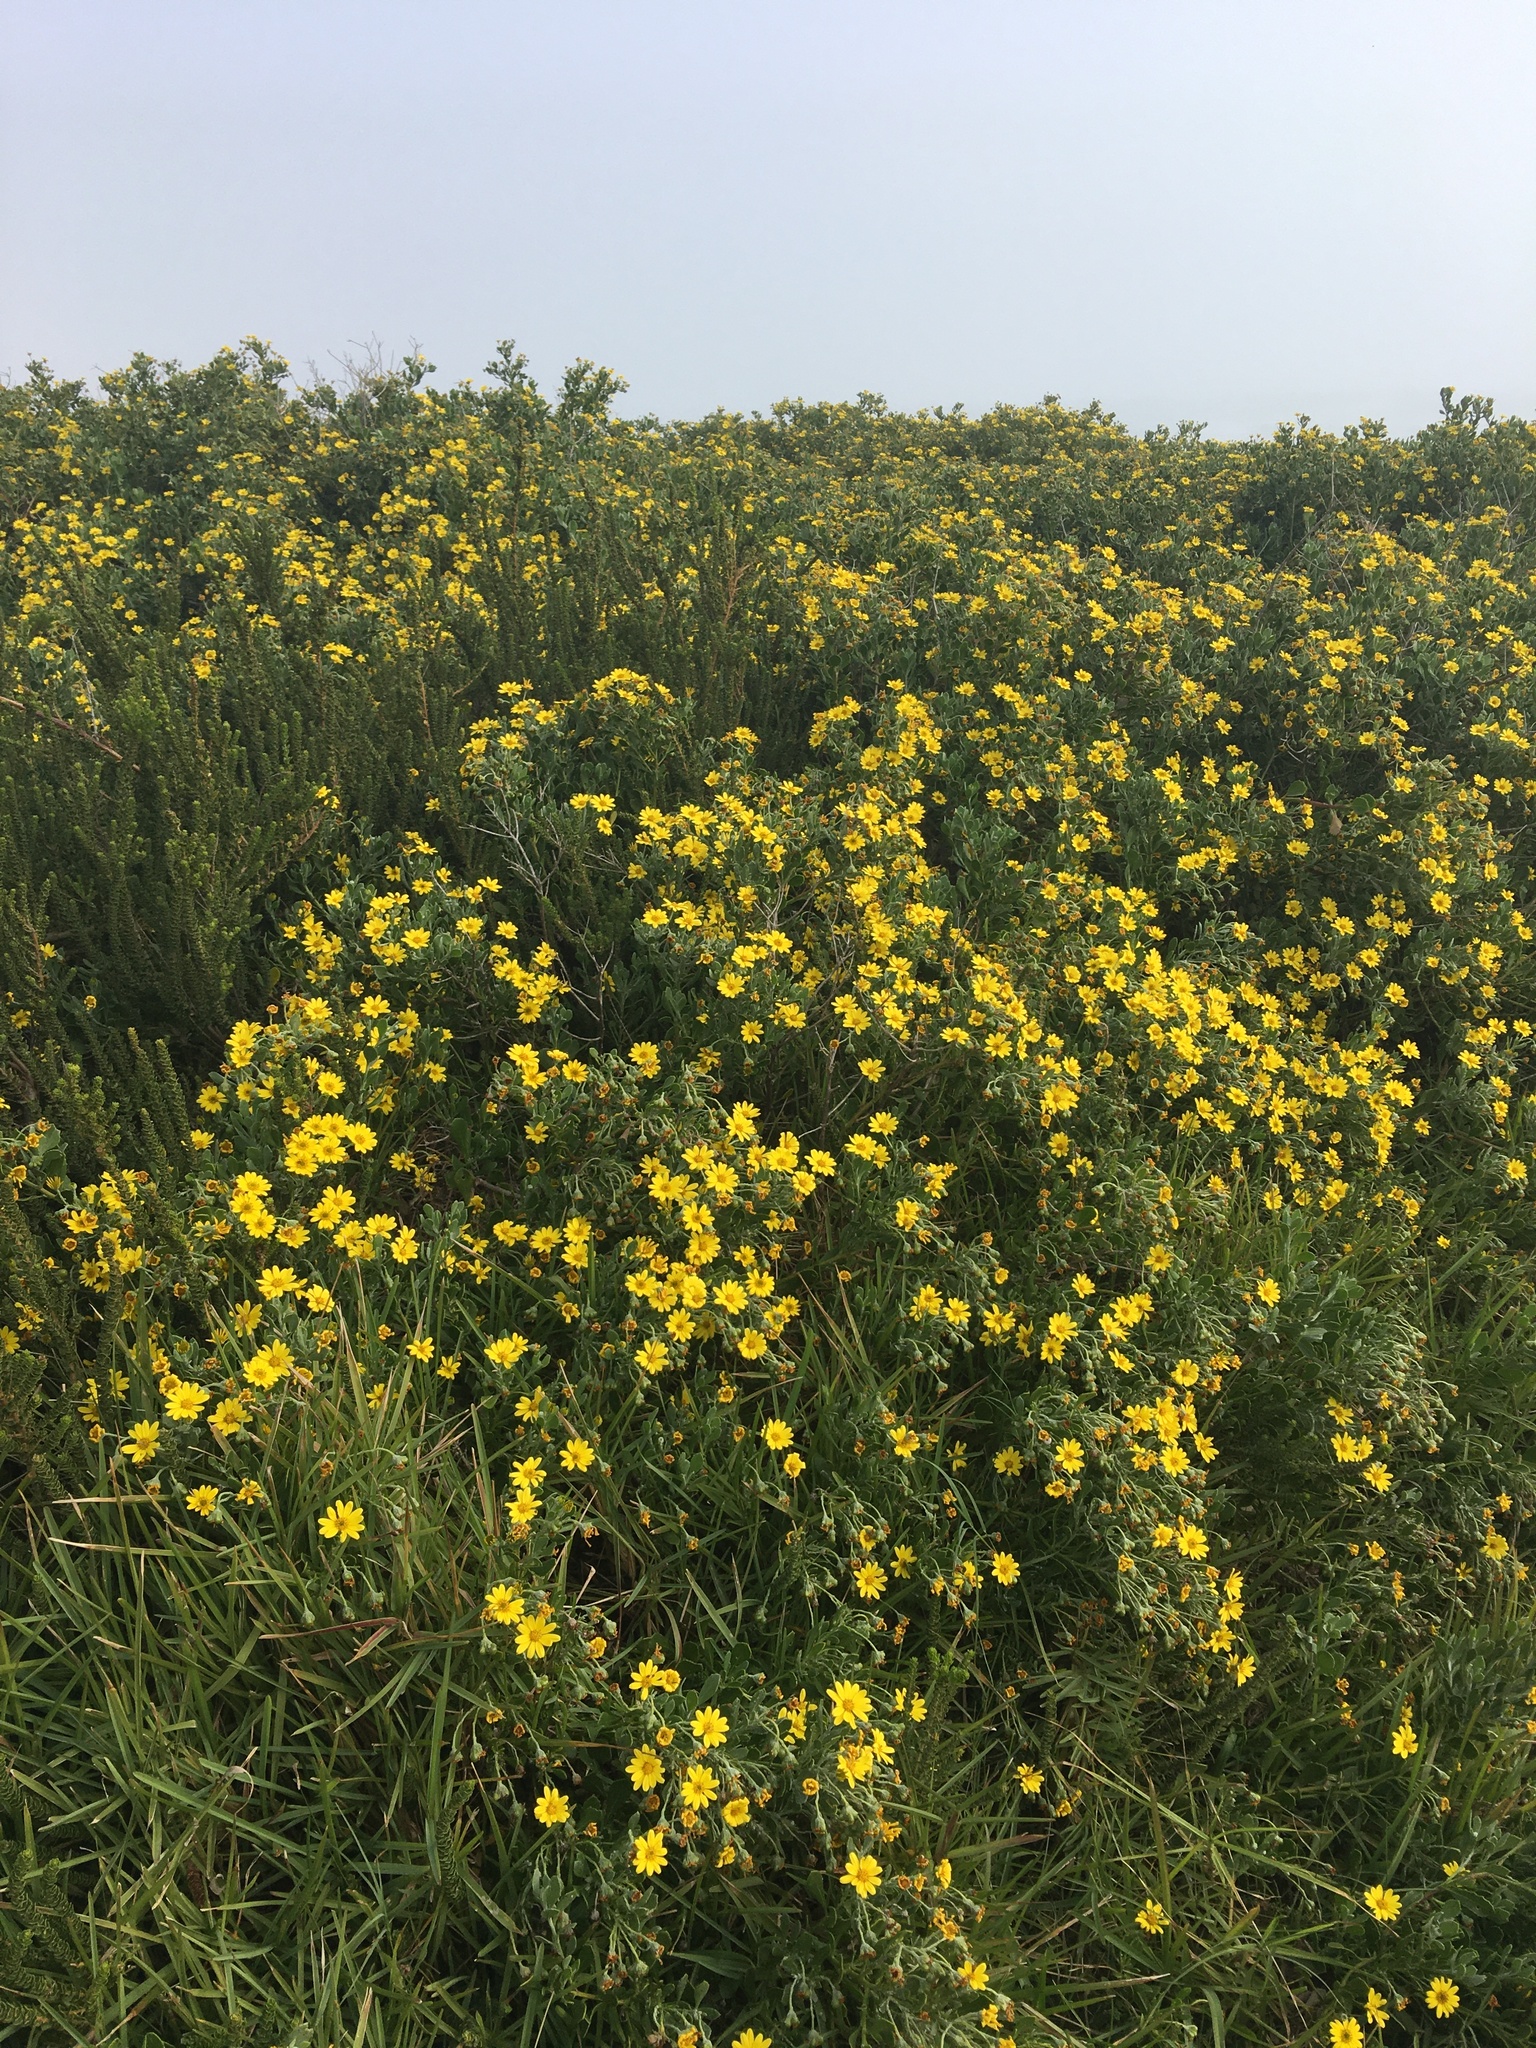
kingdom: Plantae
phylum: Tracheophyta
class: Magnoliopsida
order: Asterales
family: Asteraceae
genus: Osteospermum
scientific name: Osteospermum incanum
